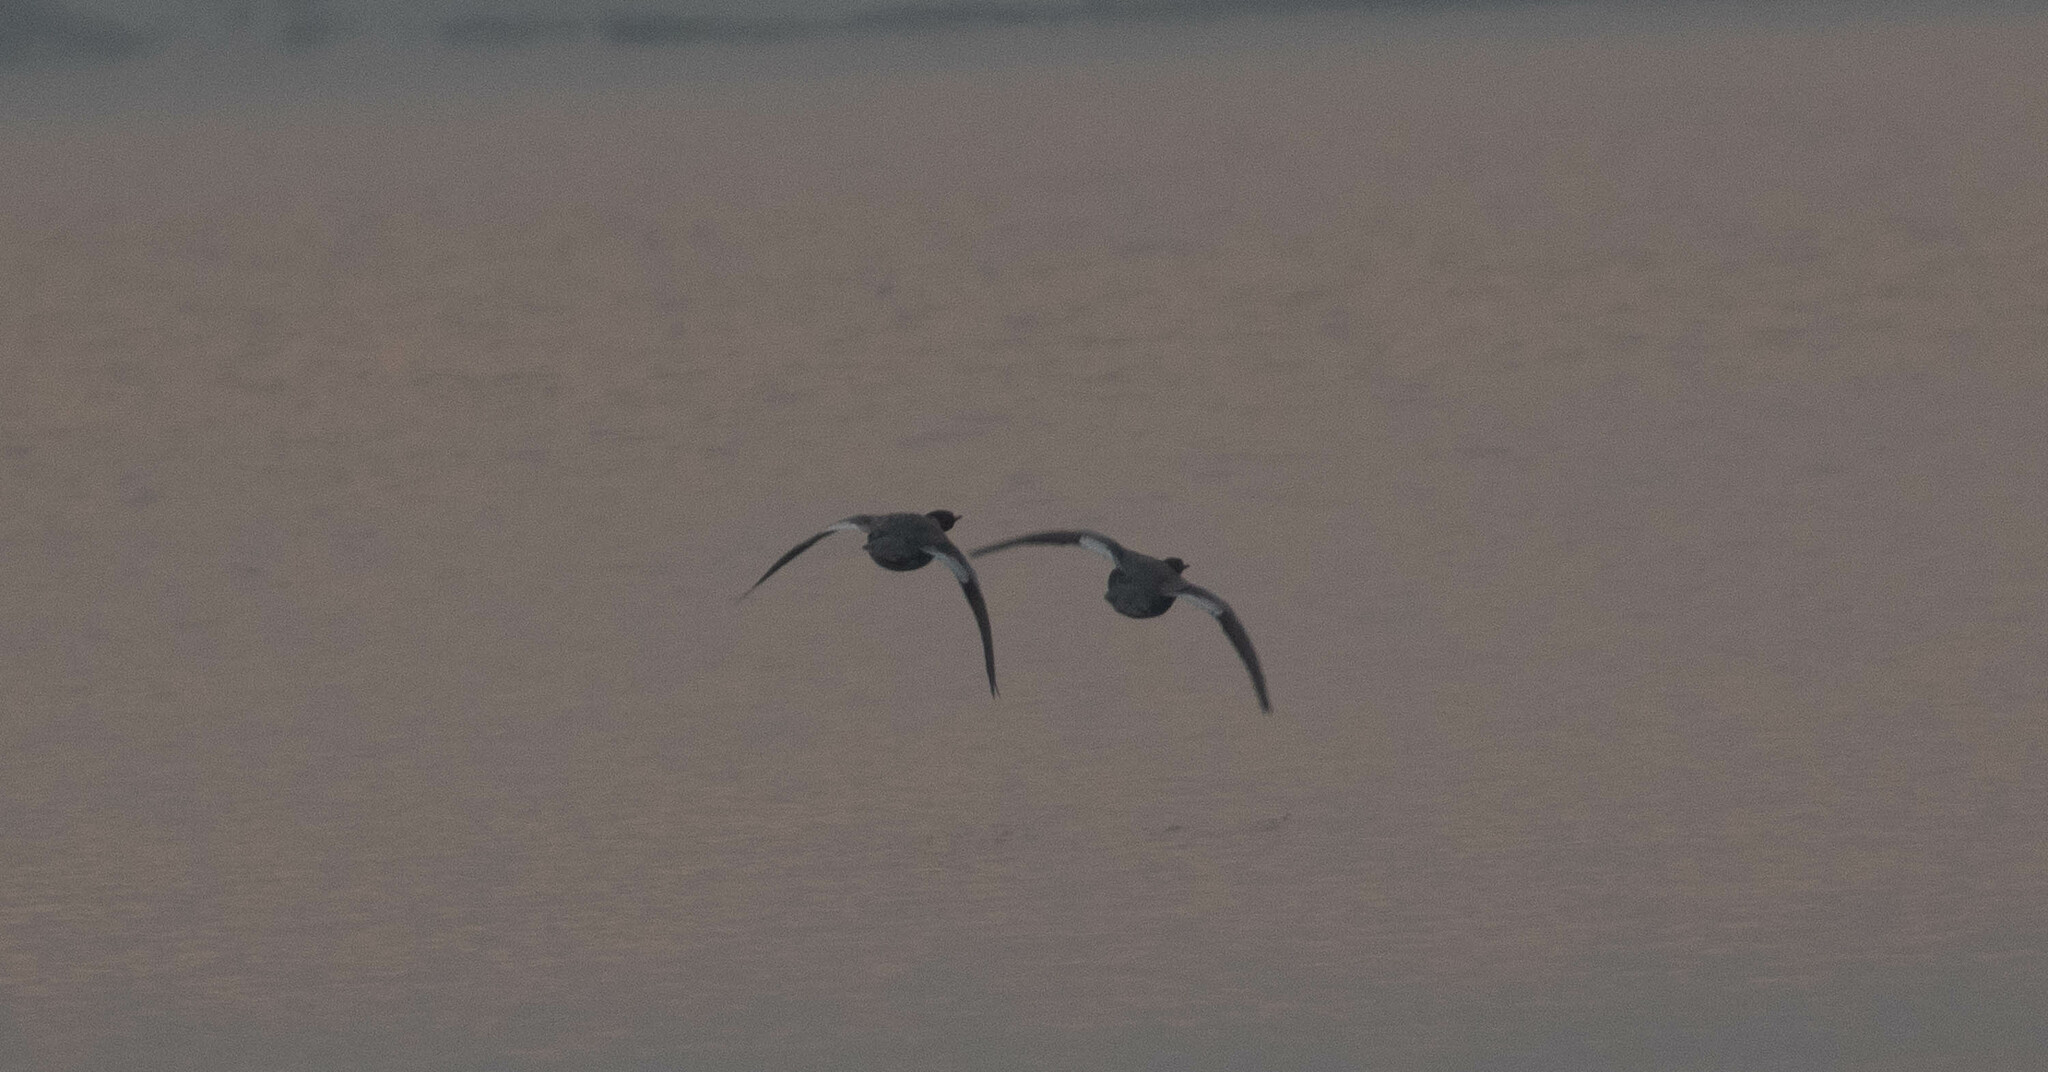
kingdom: Animalia
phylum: Chordata
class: Aves
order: Anseriformes
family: Anatidae
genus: Mergus
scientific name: Mergus merganser
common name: Common merganser
